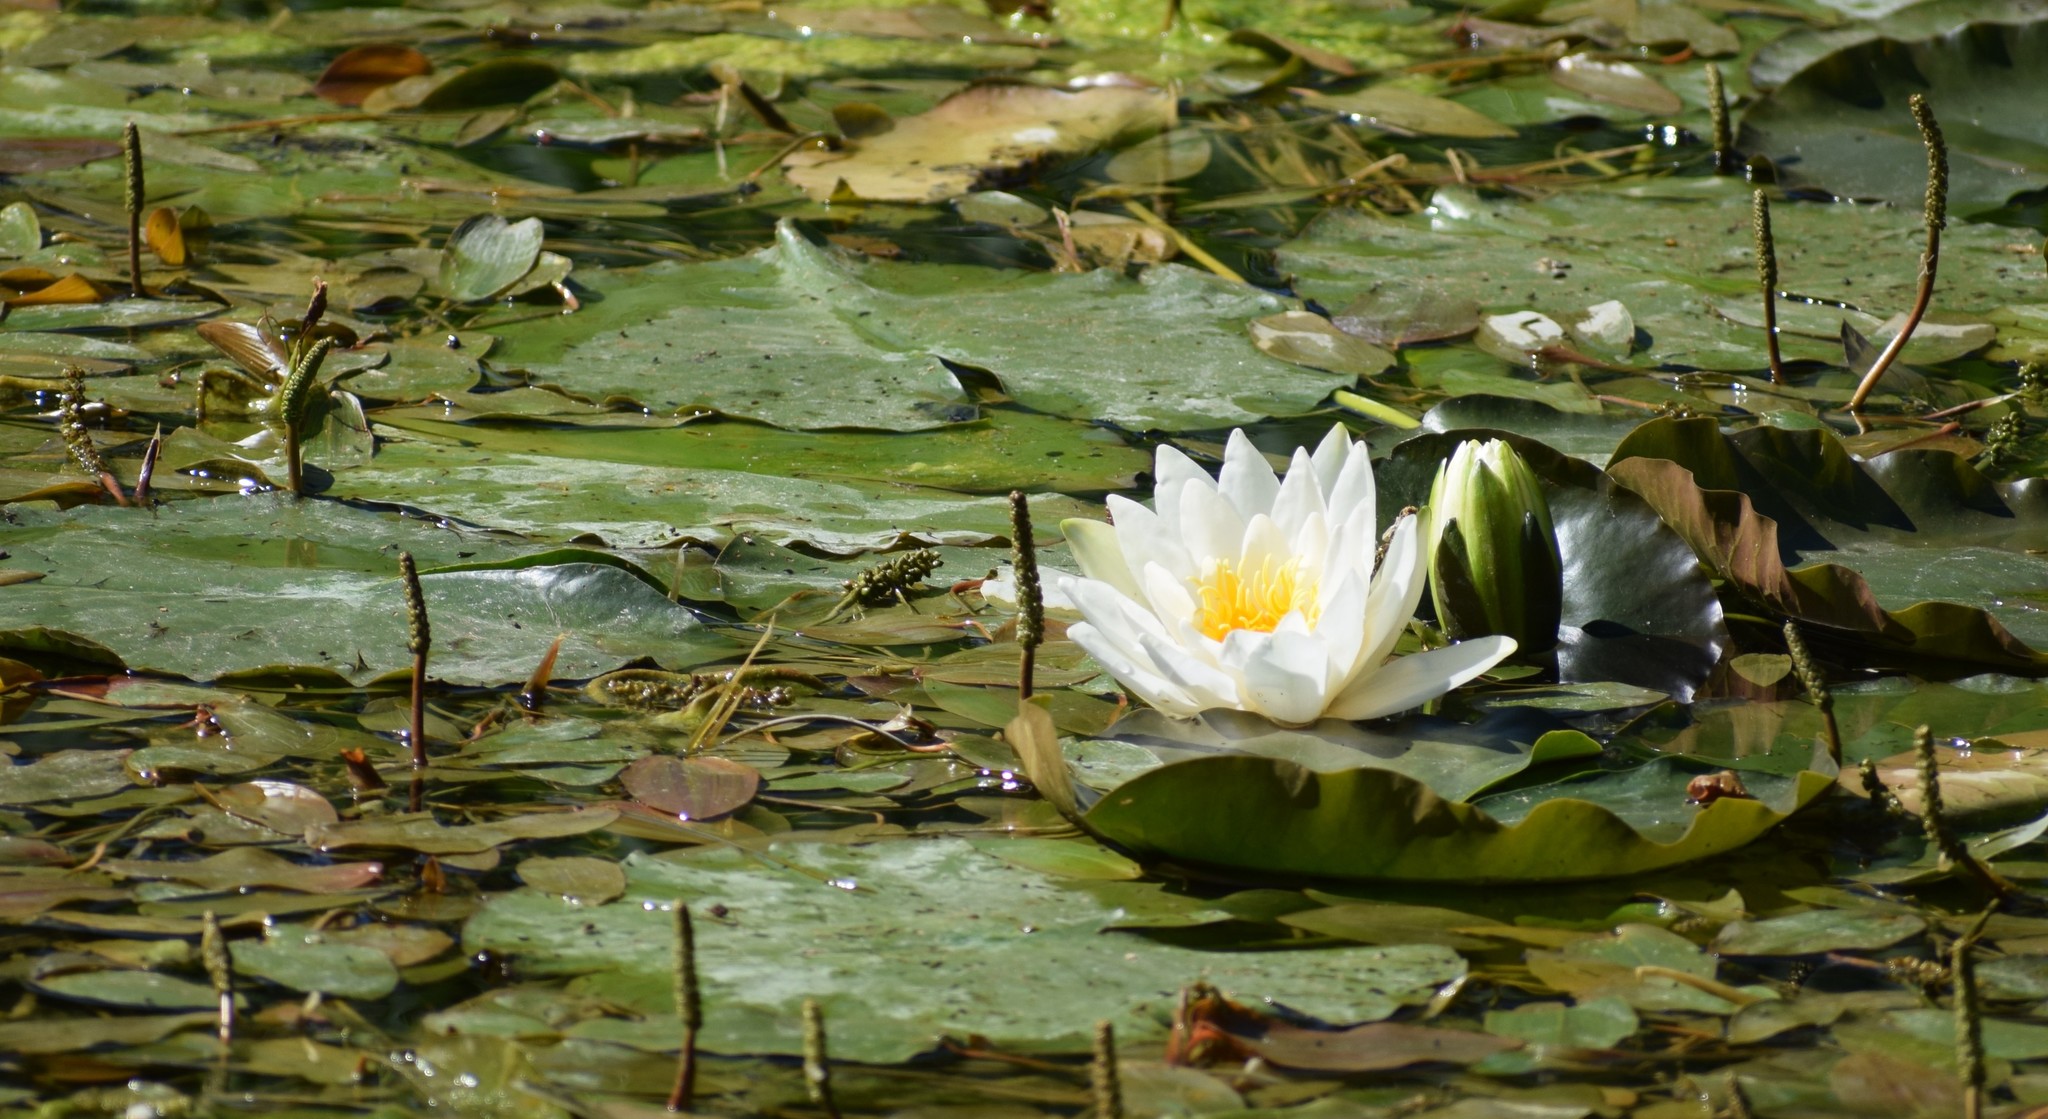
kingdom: Plantae
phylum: Tracheophyta
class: Magnoliopsida
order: Nymphaeales
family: Nymphaeaceae
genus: Nymphaea
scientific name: Nymphaea alba
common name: White water-lily
